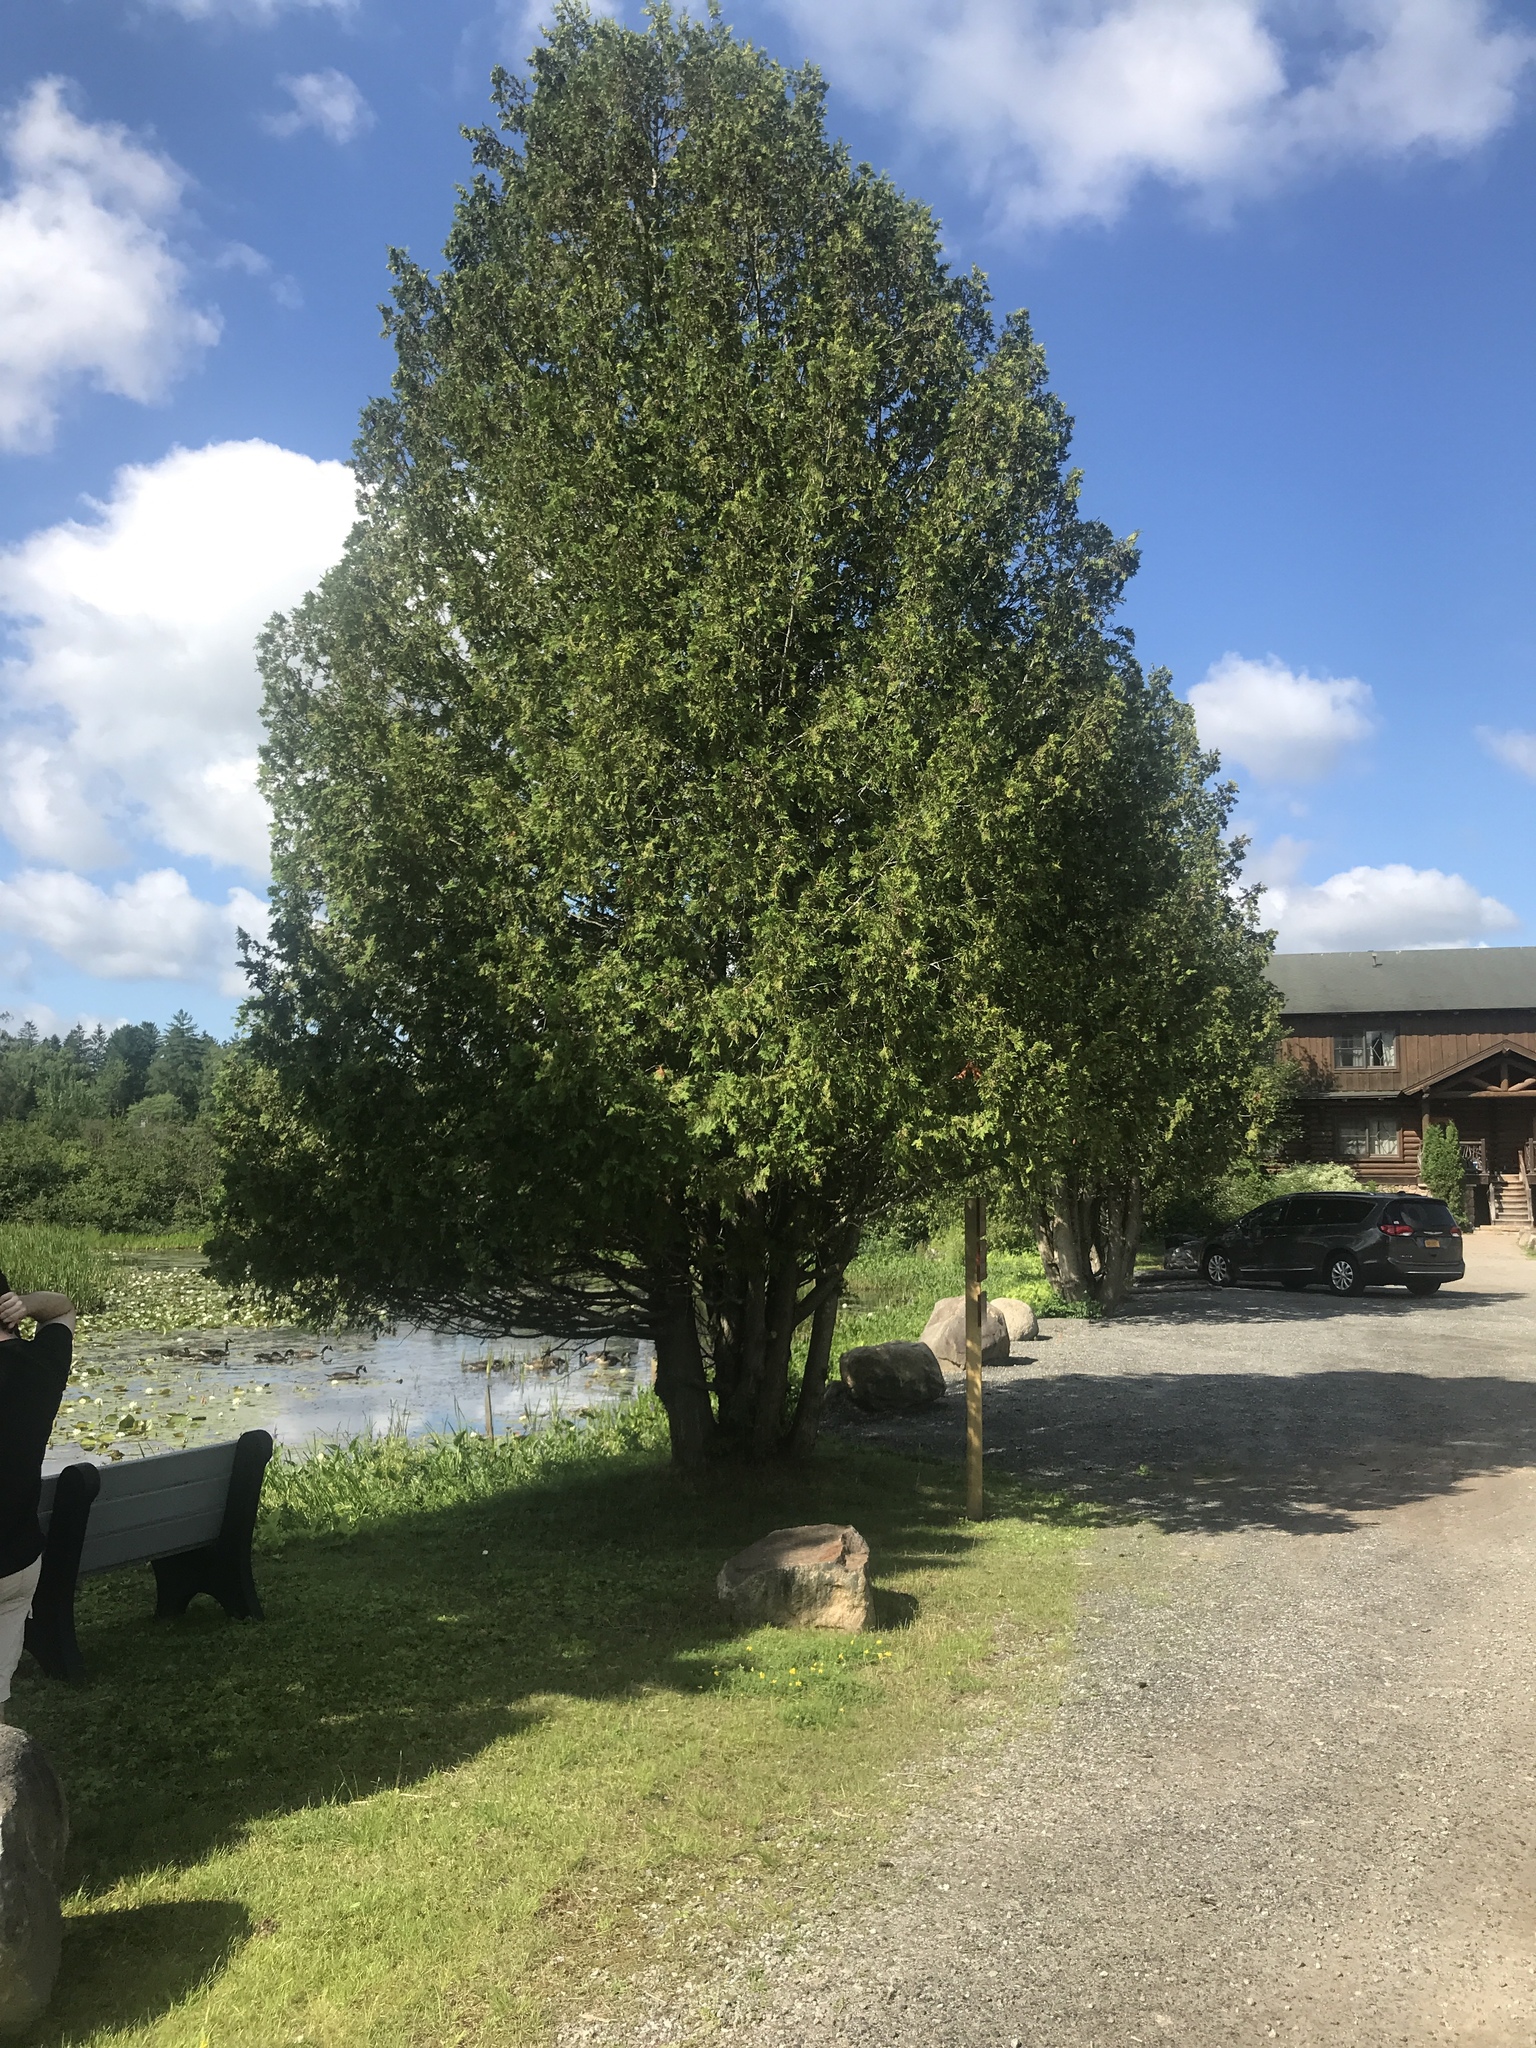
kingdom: Plantae
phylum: Tracheophyta
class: Pinopsida
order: Pinales
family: Cupressaceae
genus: Thuja
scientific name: Thuja occidentalis
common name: Northern white-cedar
